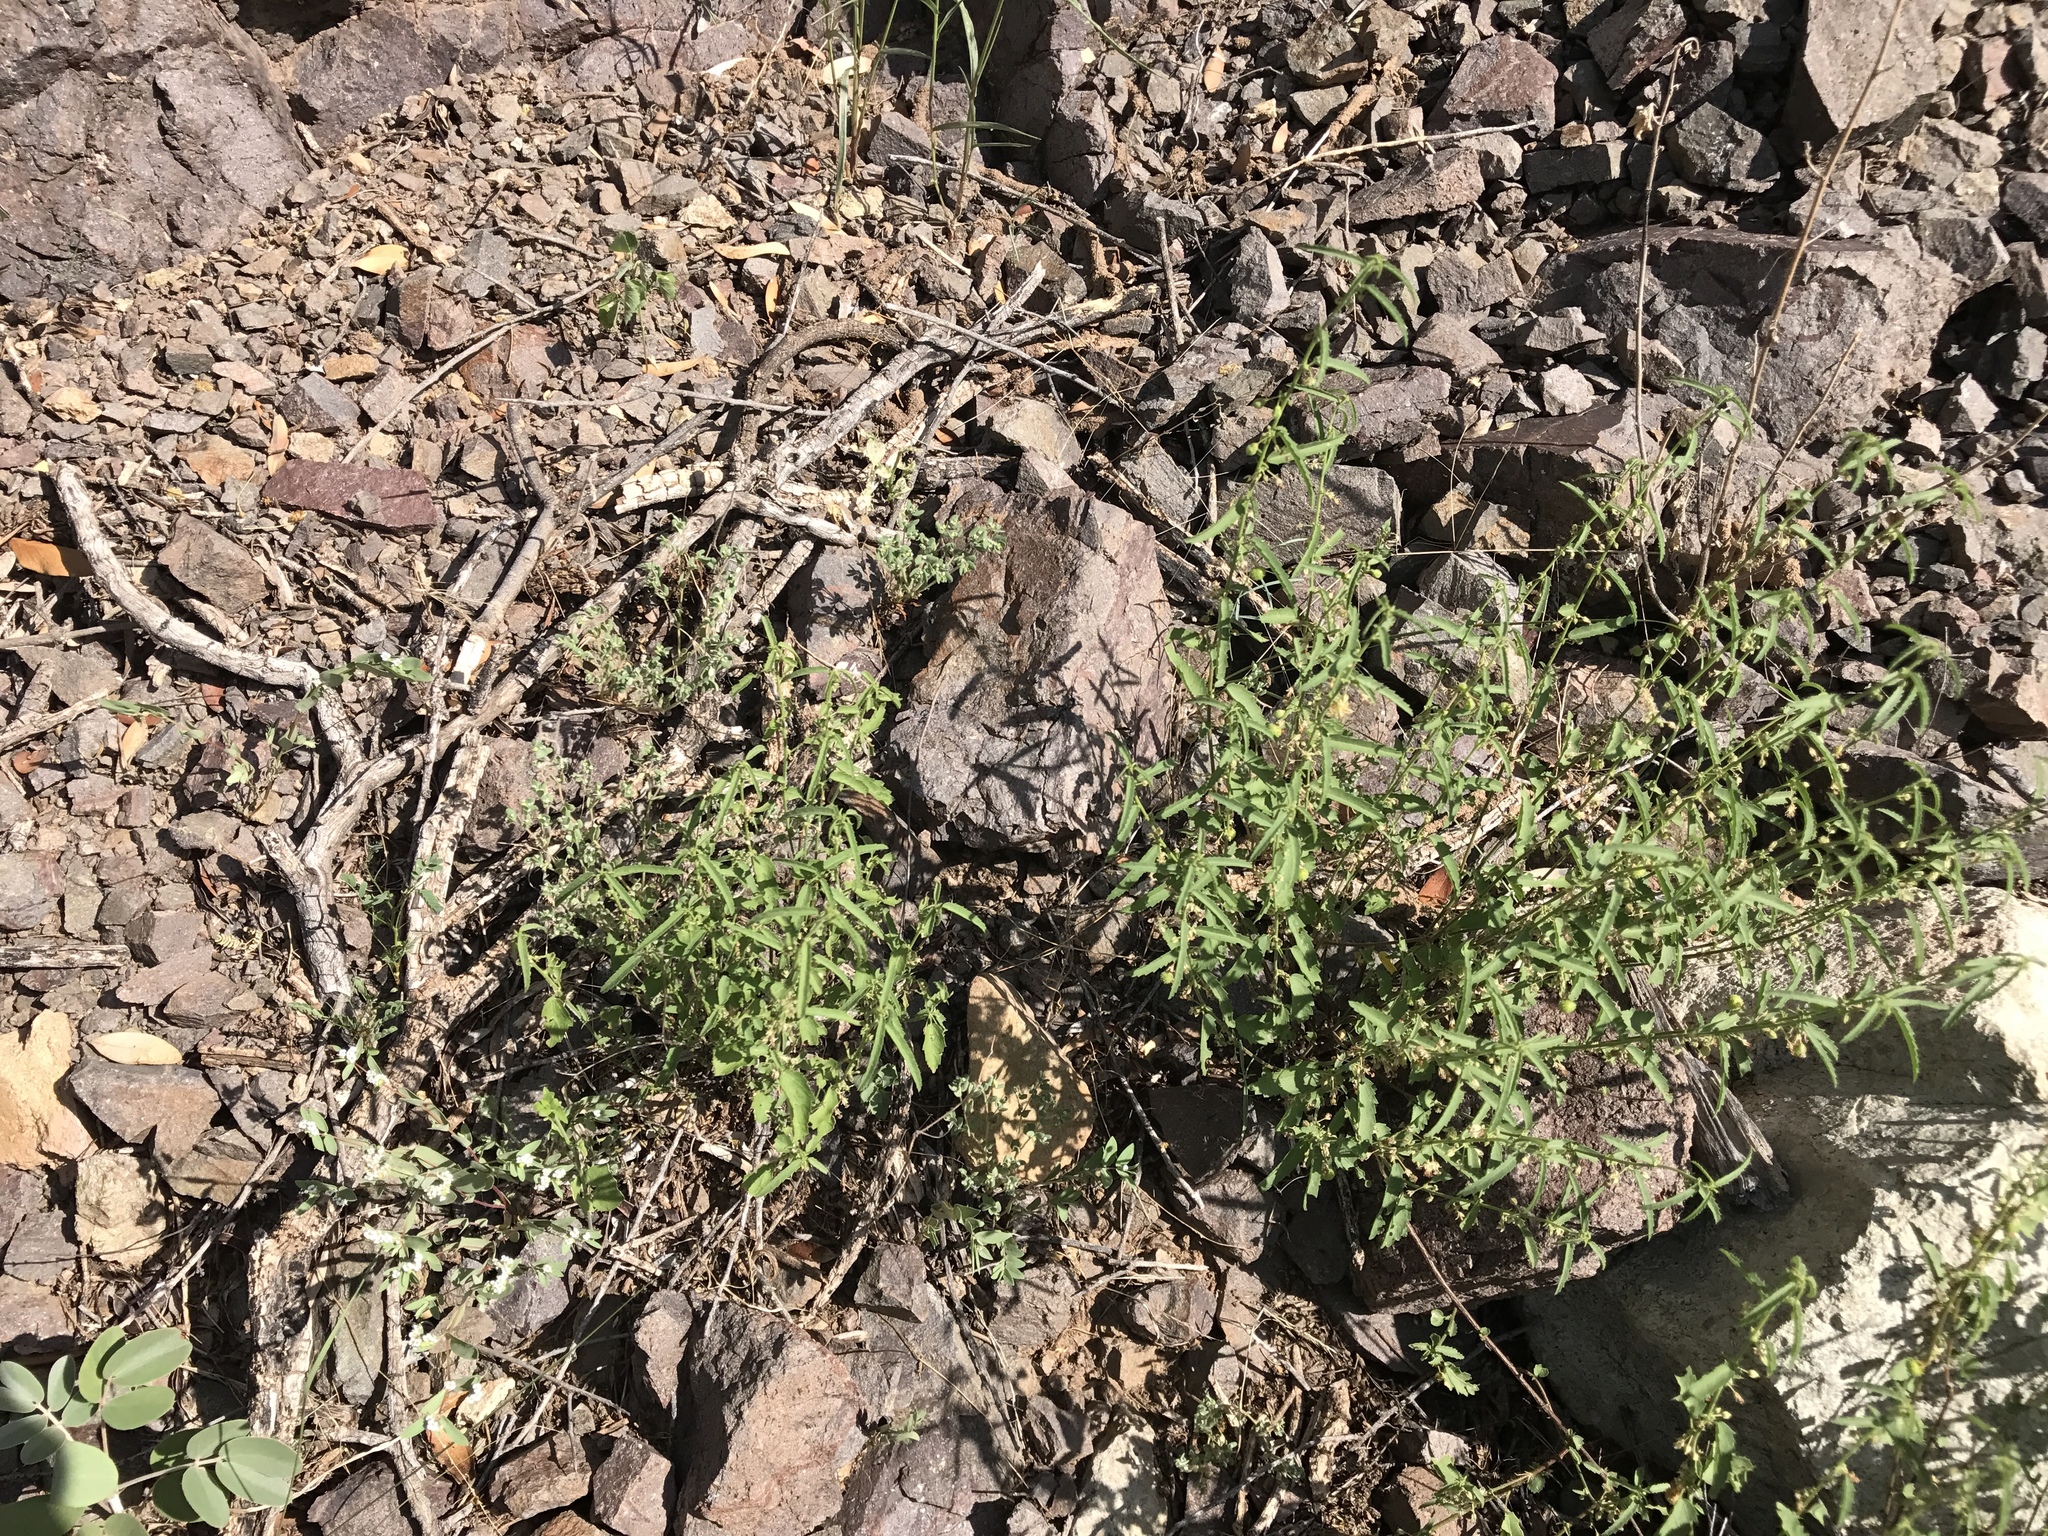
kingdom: Plantae
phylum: Tracheophyta
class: Magnoliopsida
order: Malvales
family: Malvaceae
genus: Ayenia
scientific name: Ayenia filiformis
